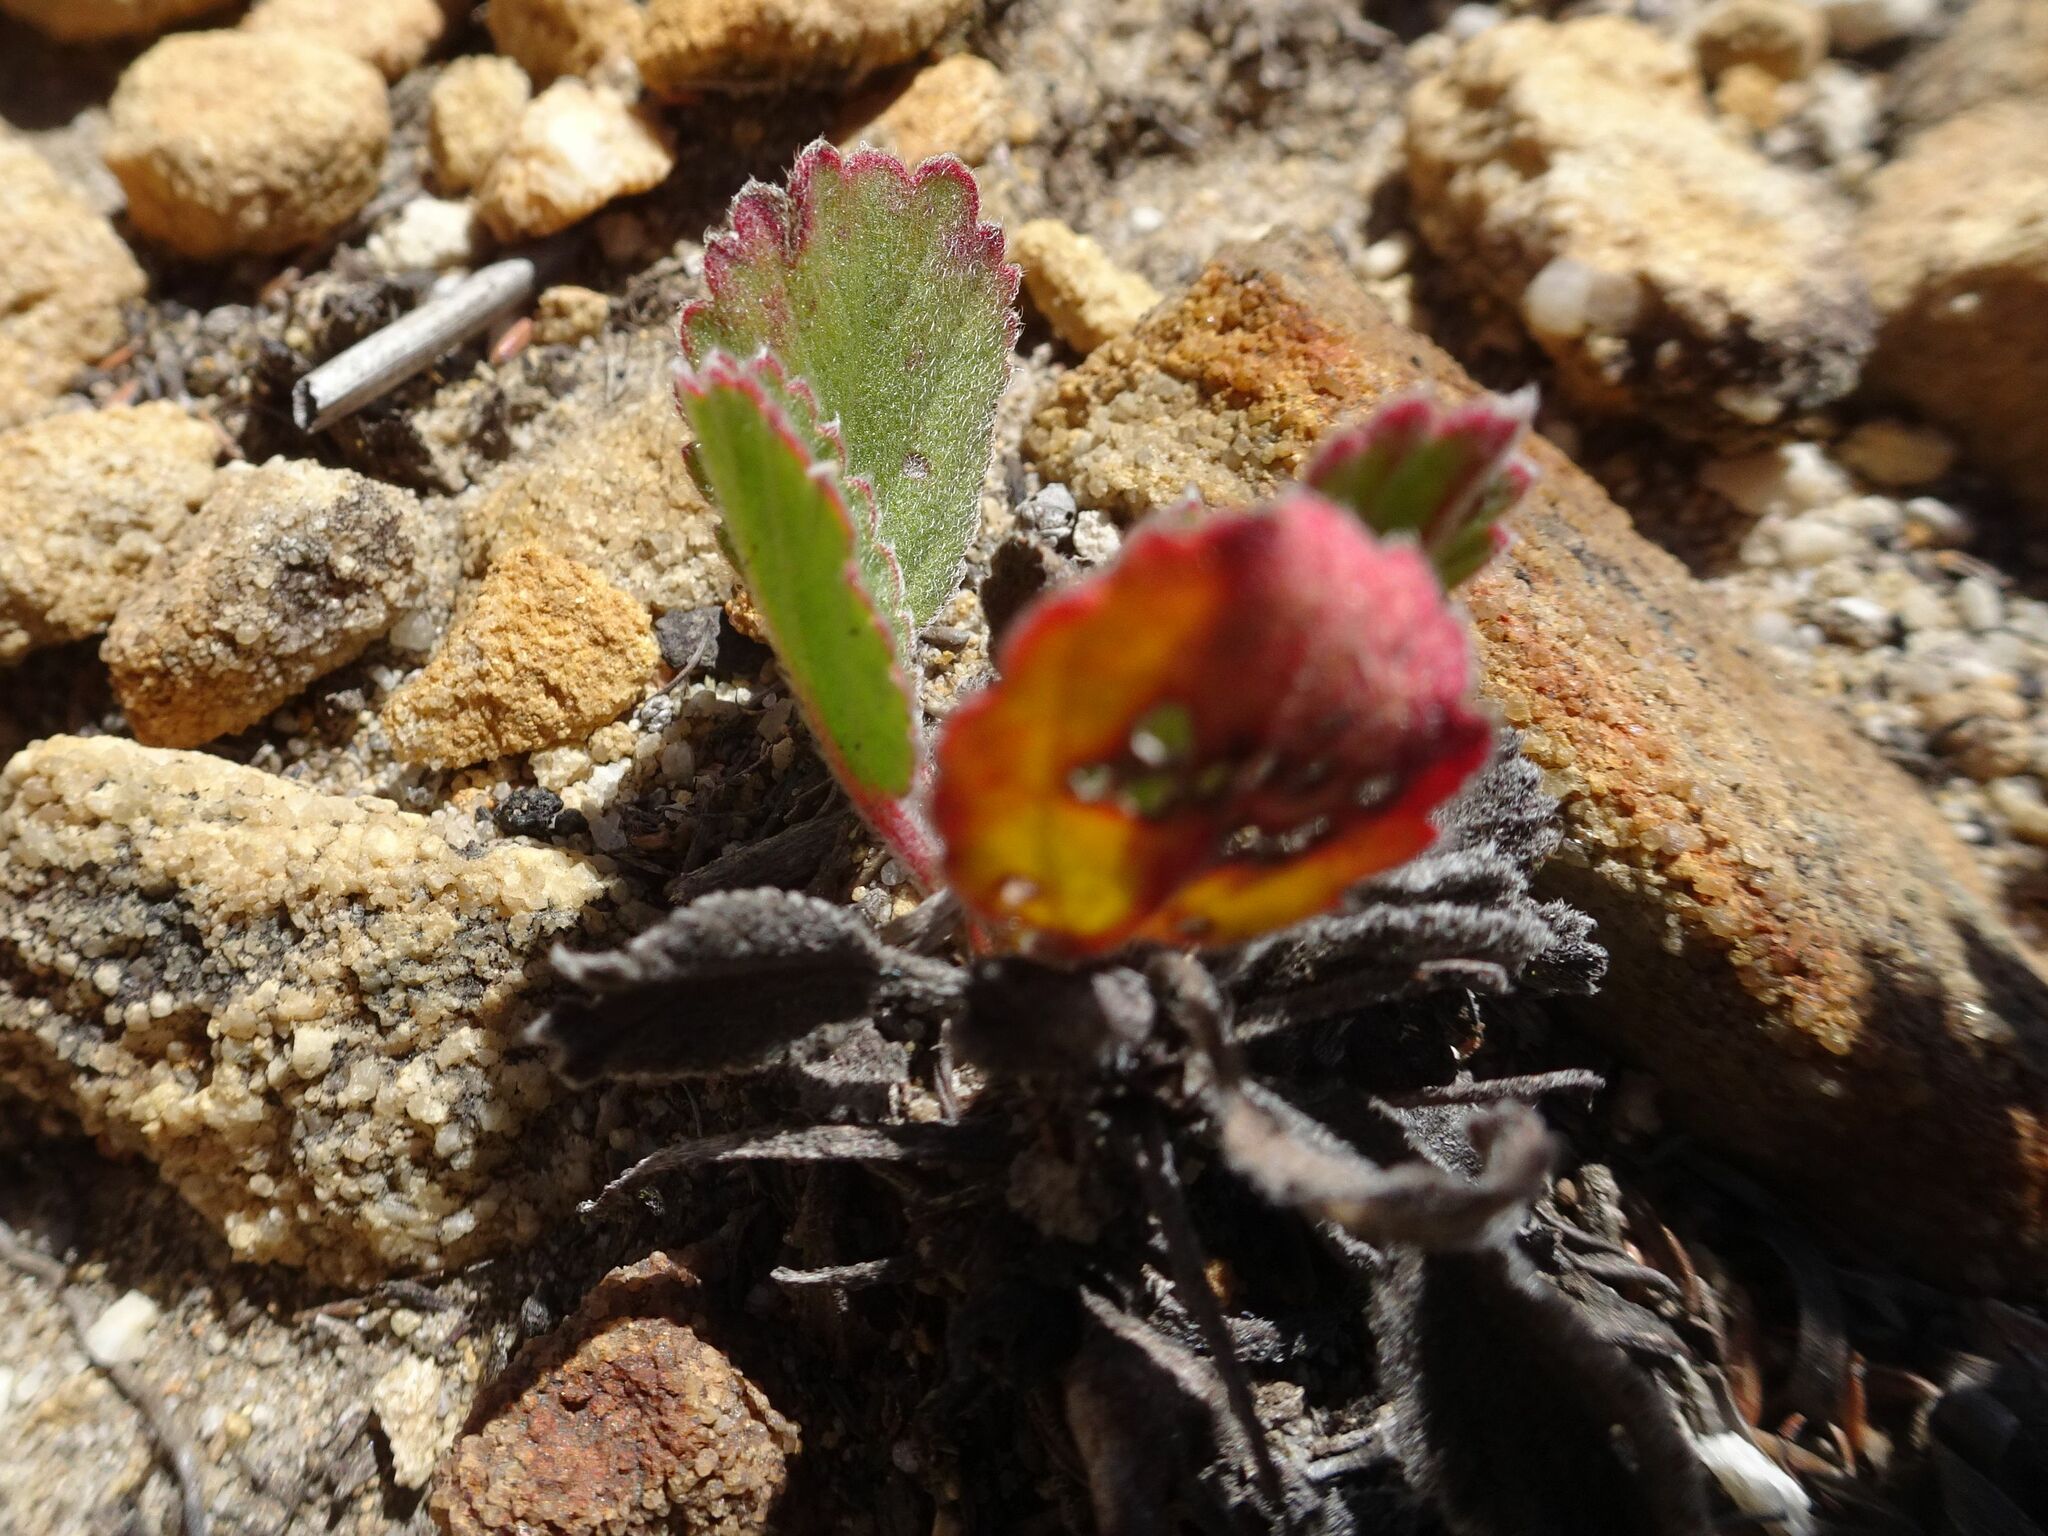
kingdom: Plantae
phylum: Tracheophyta
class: Magnoliopsida
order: Geraniales
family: Geraniaceae
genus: Pelargonium
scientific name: Pelargonium ovale
